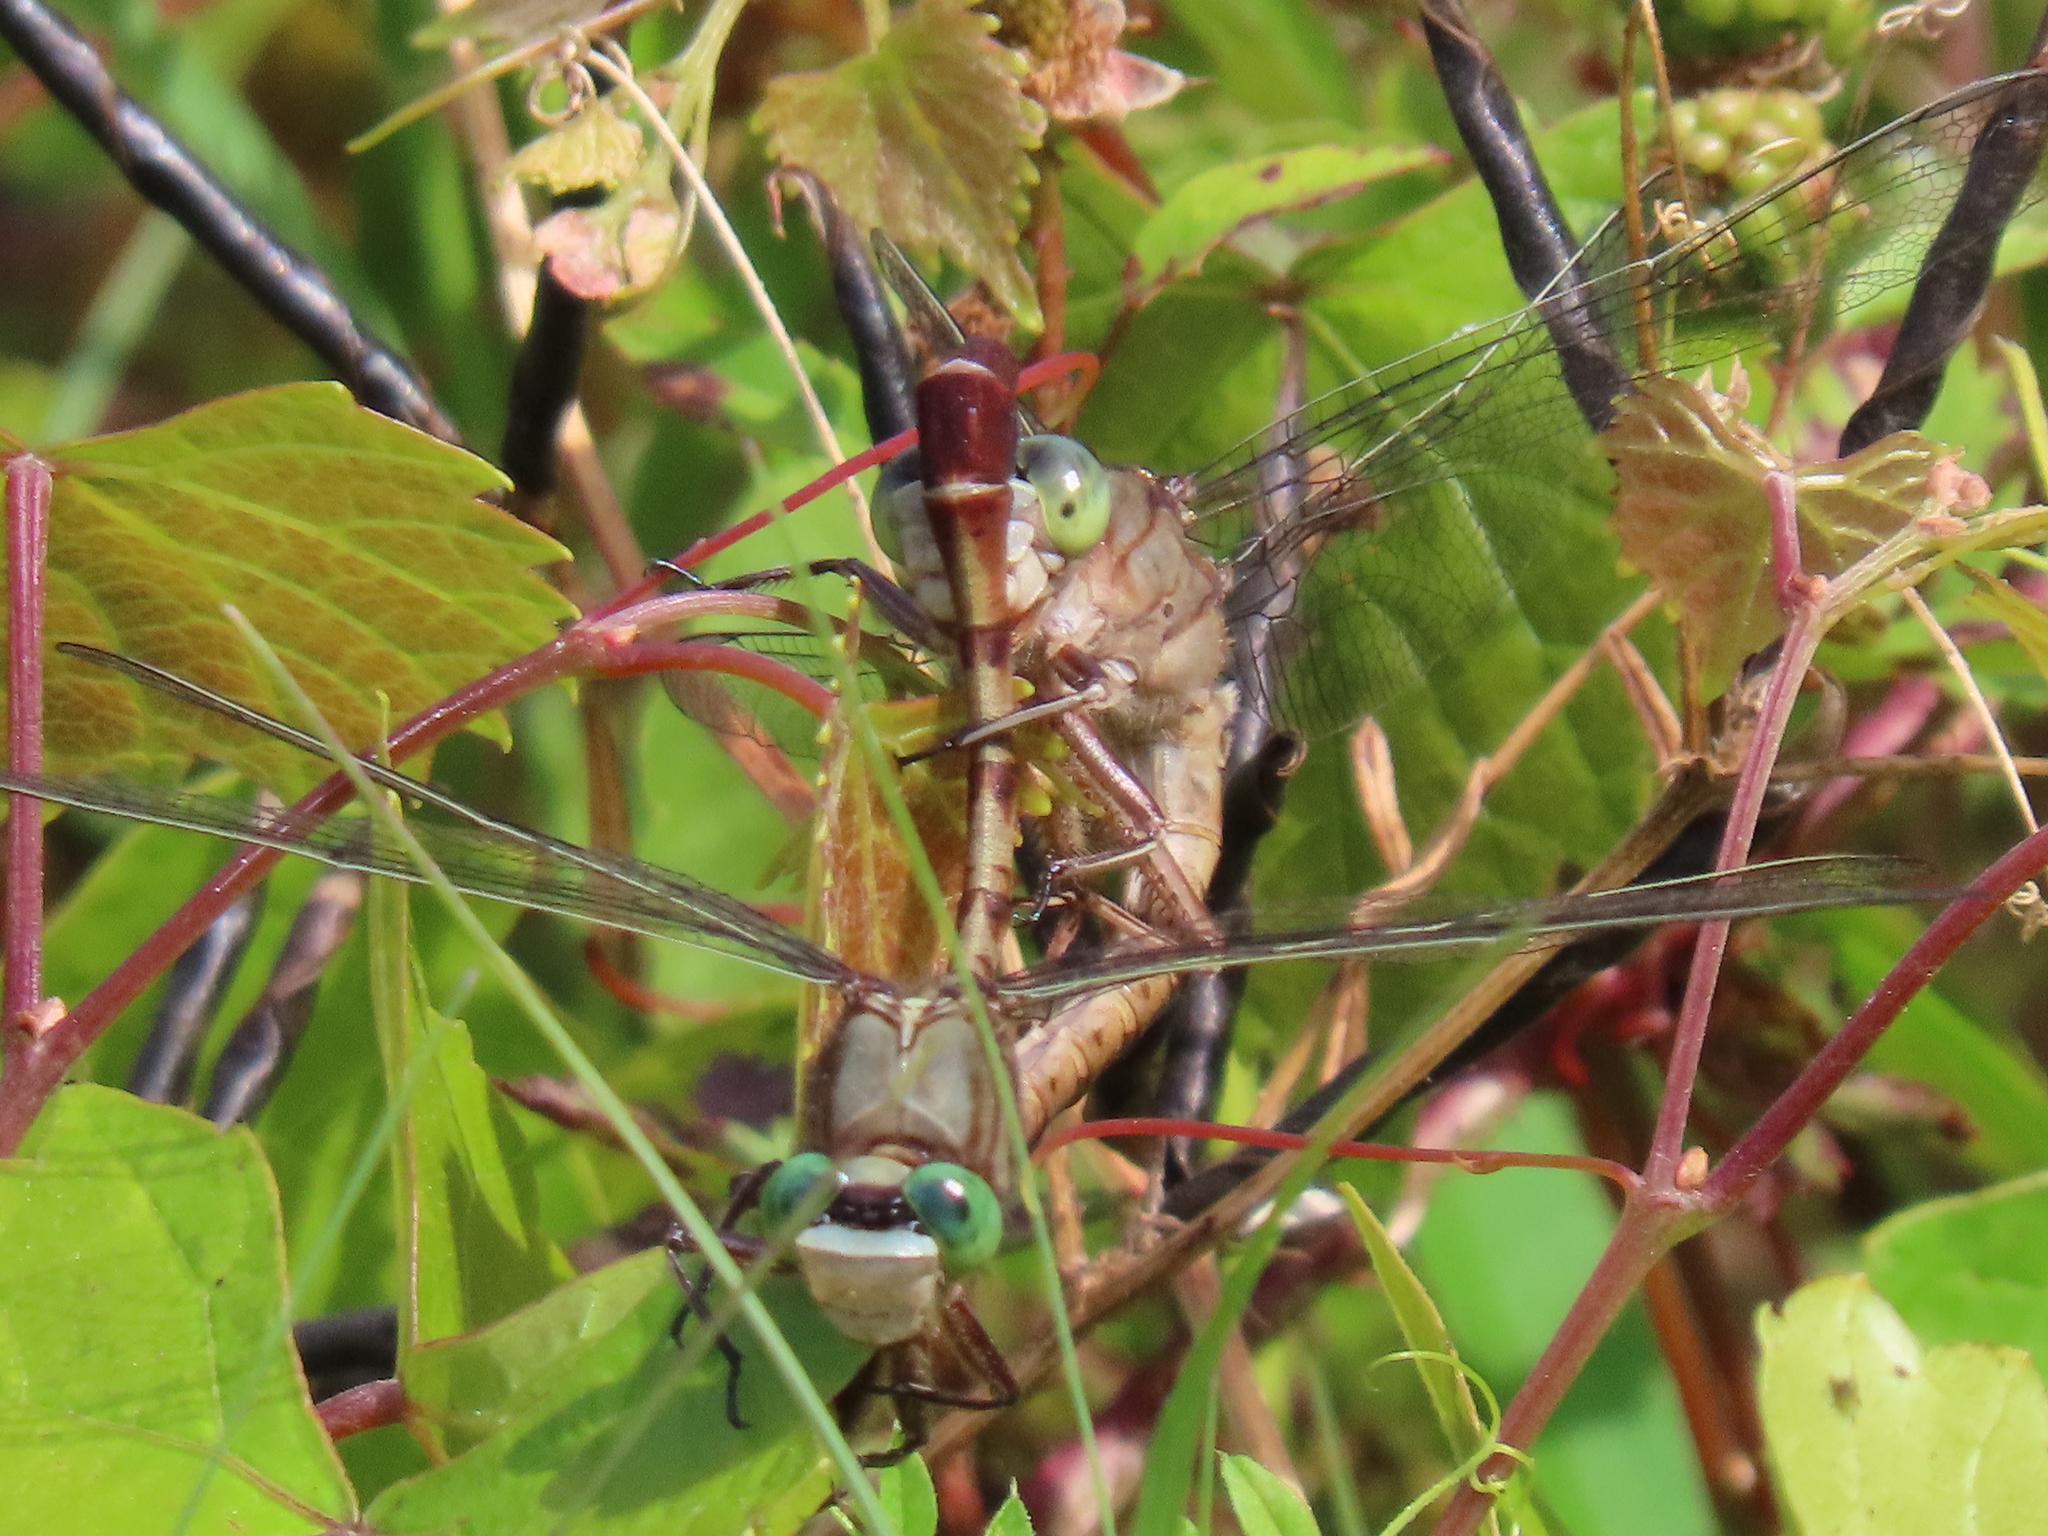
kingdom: Animalia
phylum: Arthropoda
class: Insecta
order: Odonata
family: Gomphidae
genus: Arigomphus
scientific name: Arigomphus pallidus
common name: Gray-green clubtail
